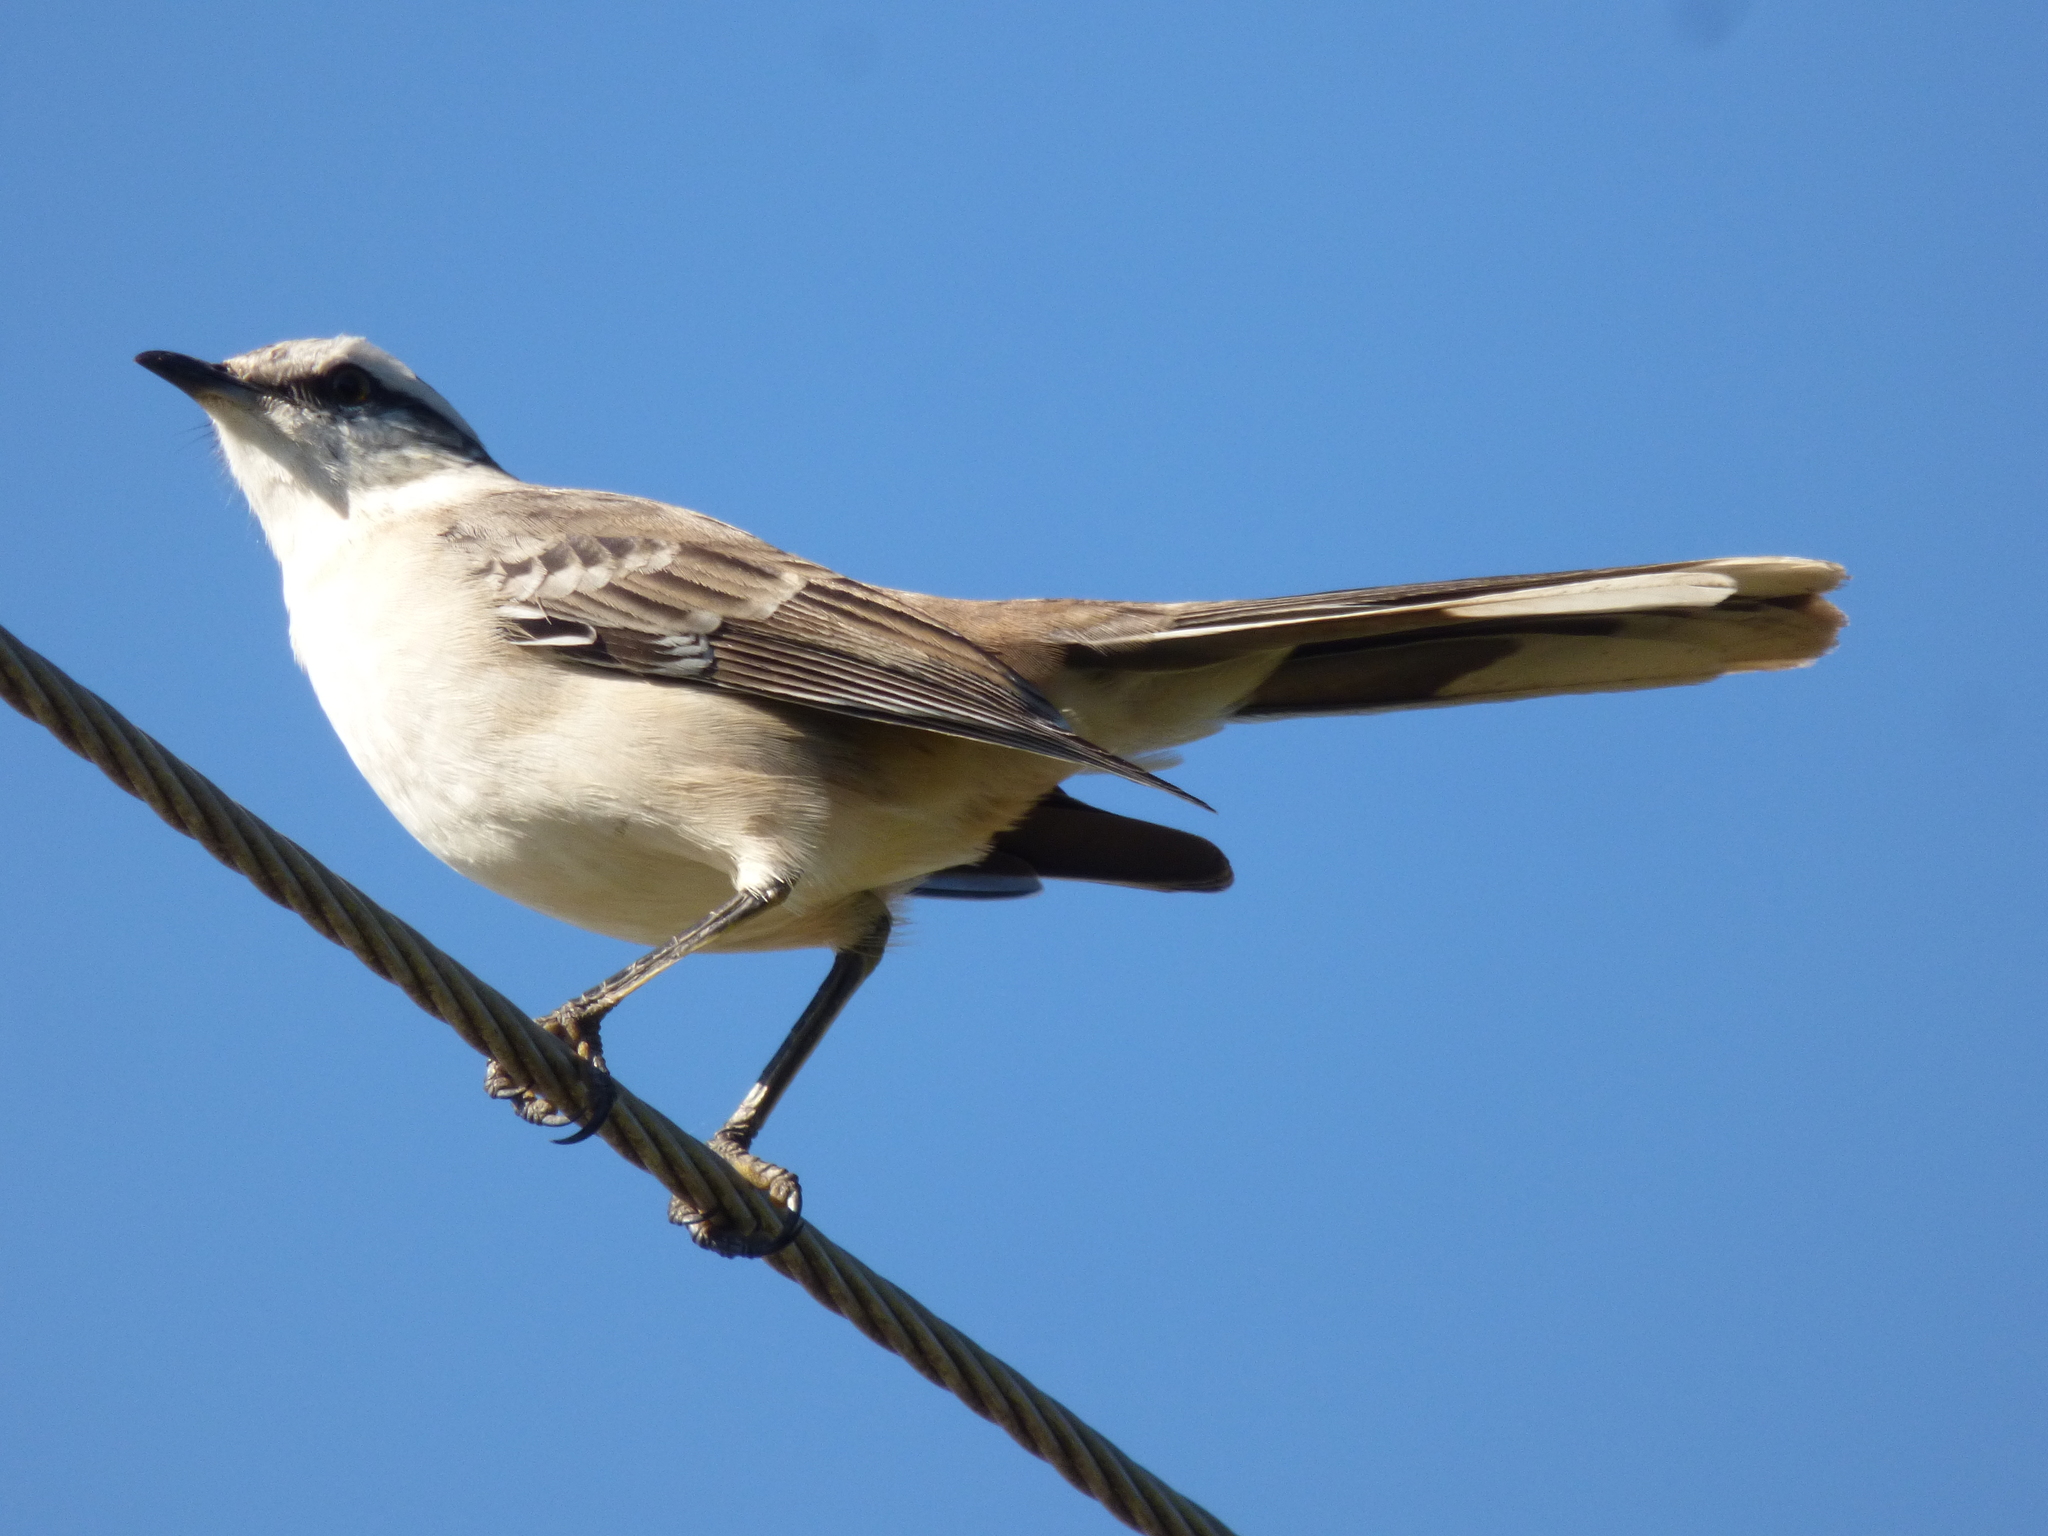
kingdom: Animalia
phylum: Chordata
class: Aves
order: Passeriformes
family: Mimidae
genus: Mimus
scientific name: Mimus saturninus
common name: Chalk-browed mockingbird
